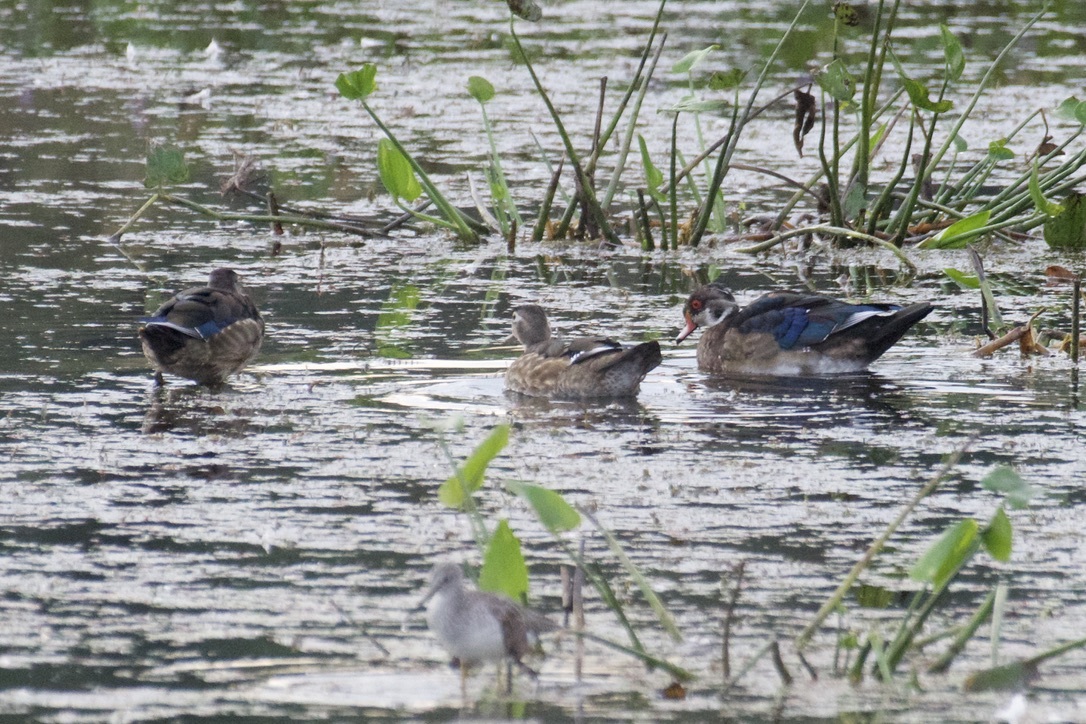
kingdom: Animalia
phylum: Chordata
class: Aves
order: Anseriformes
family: Anatidae
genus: Aix
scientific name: Aix sponsa
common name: Wood duck
